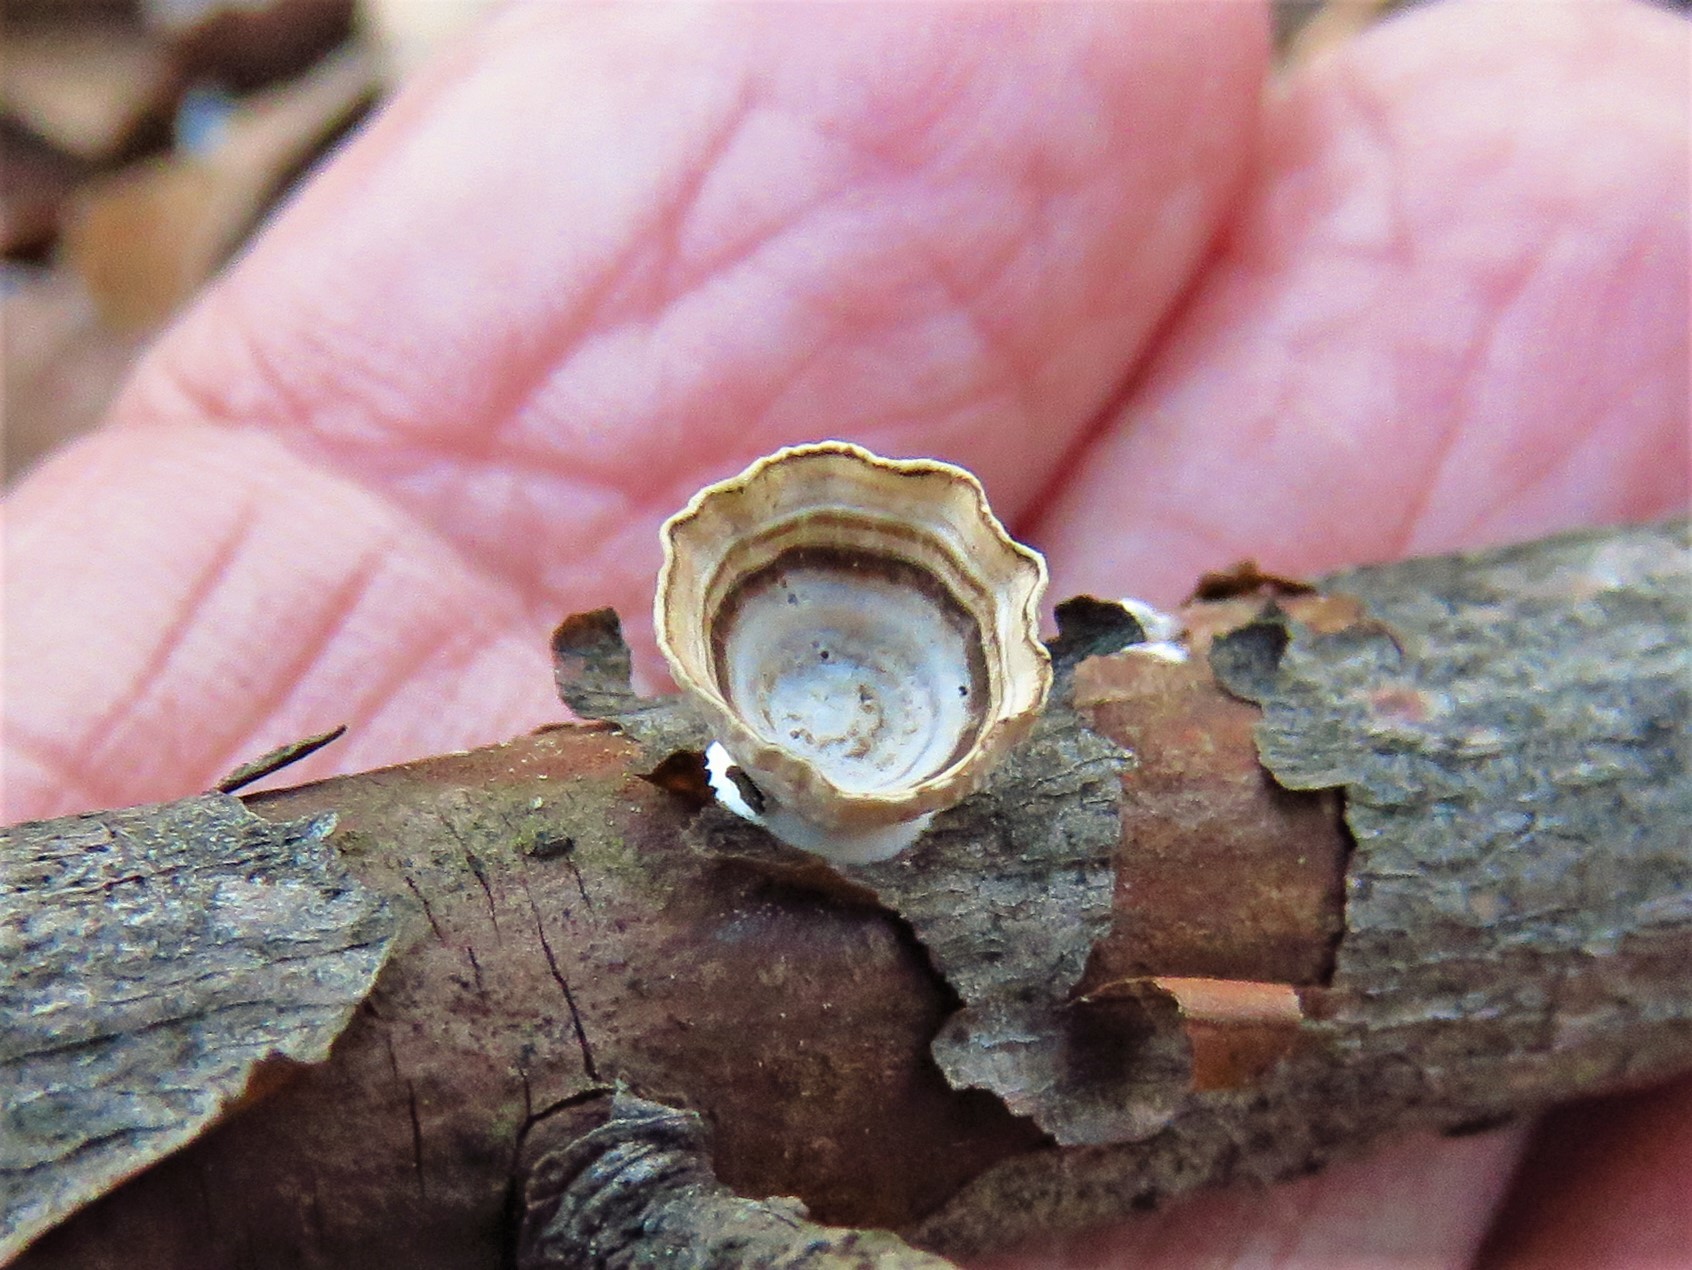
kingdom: Fungi
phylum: Basidiomycota
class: Agaricomycetes
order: Polyporales
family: Polyporaceae
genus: Poronidulus
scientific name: Poronidulus conchifer
